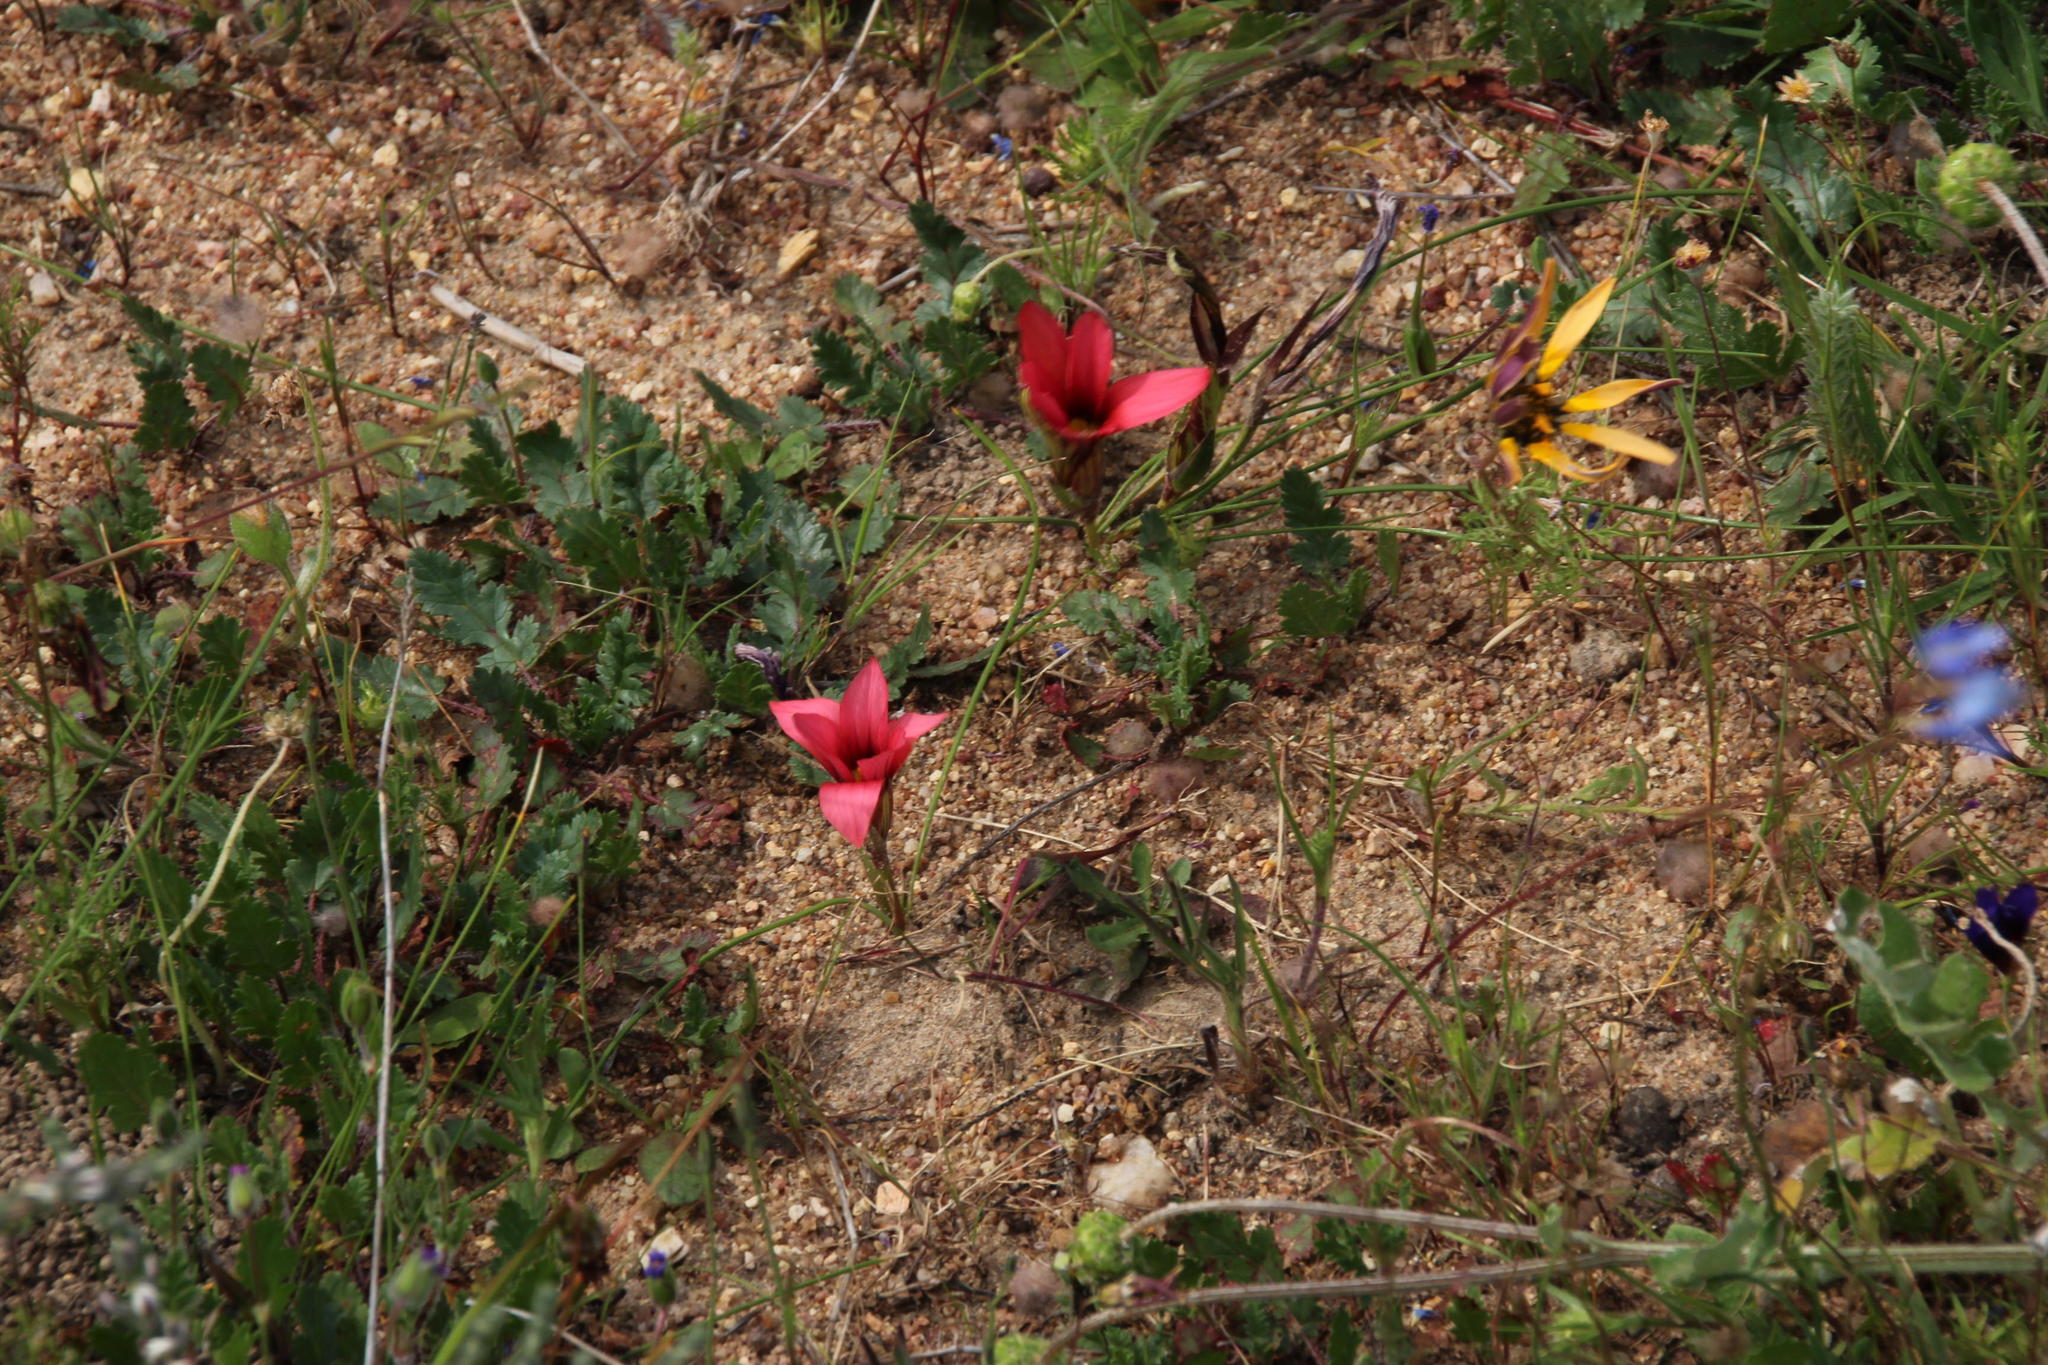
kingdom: Plantae
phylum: Tracheophyta
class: Liliopsida
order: Asparagales
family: Iridaceae
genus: Romulea
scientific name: Romulea hirsuta
